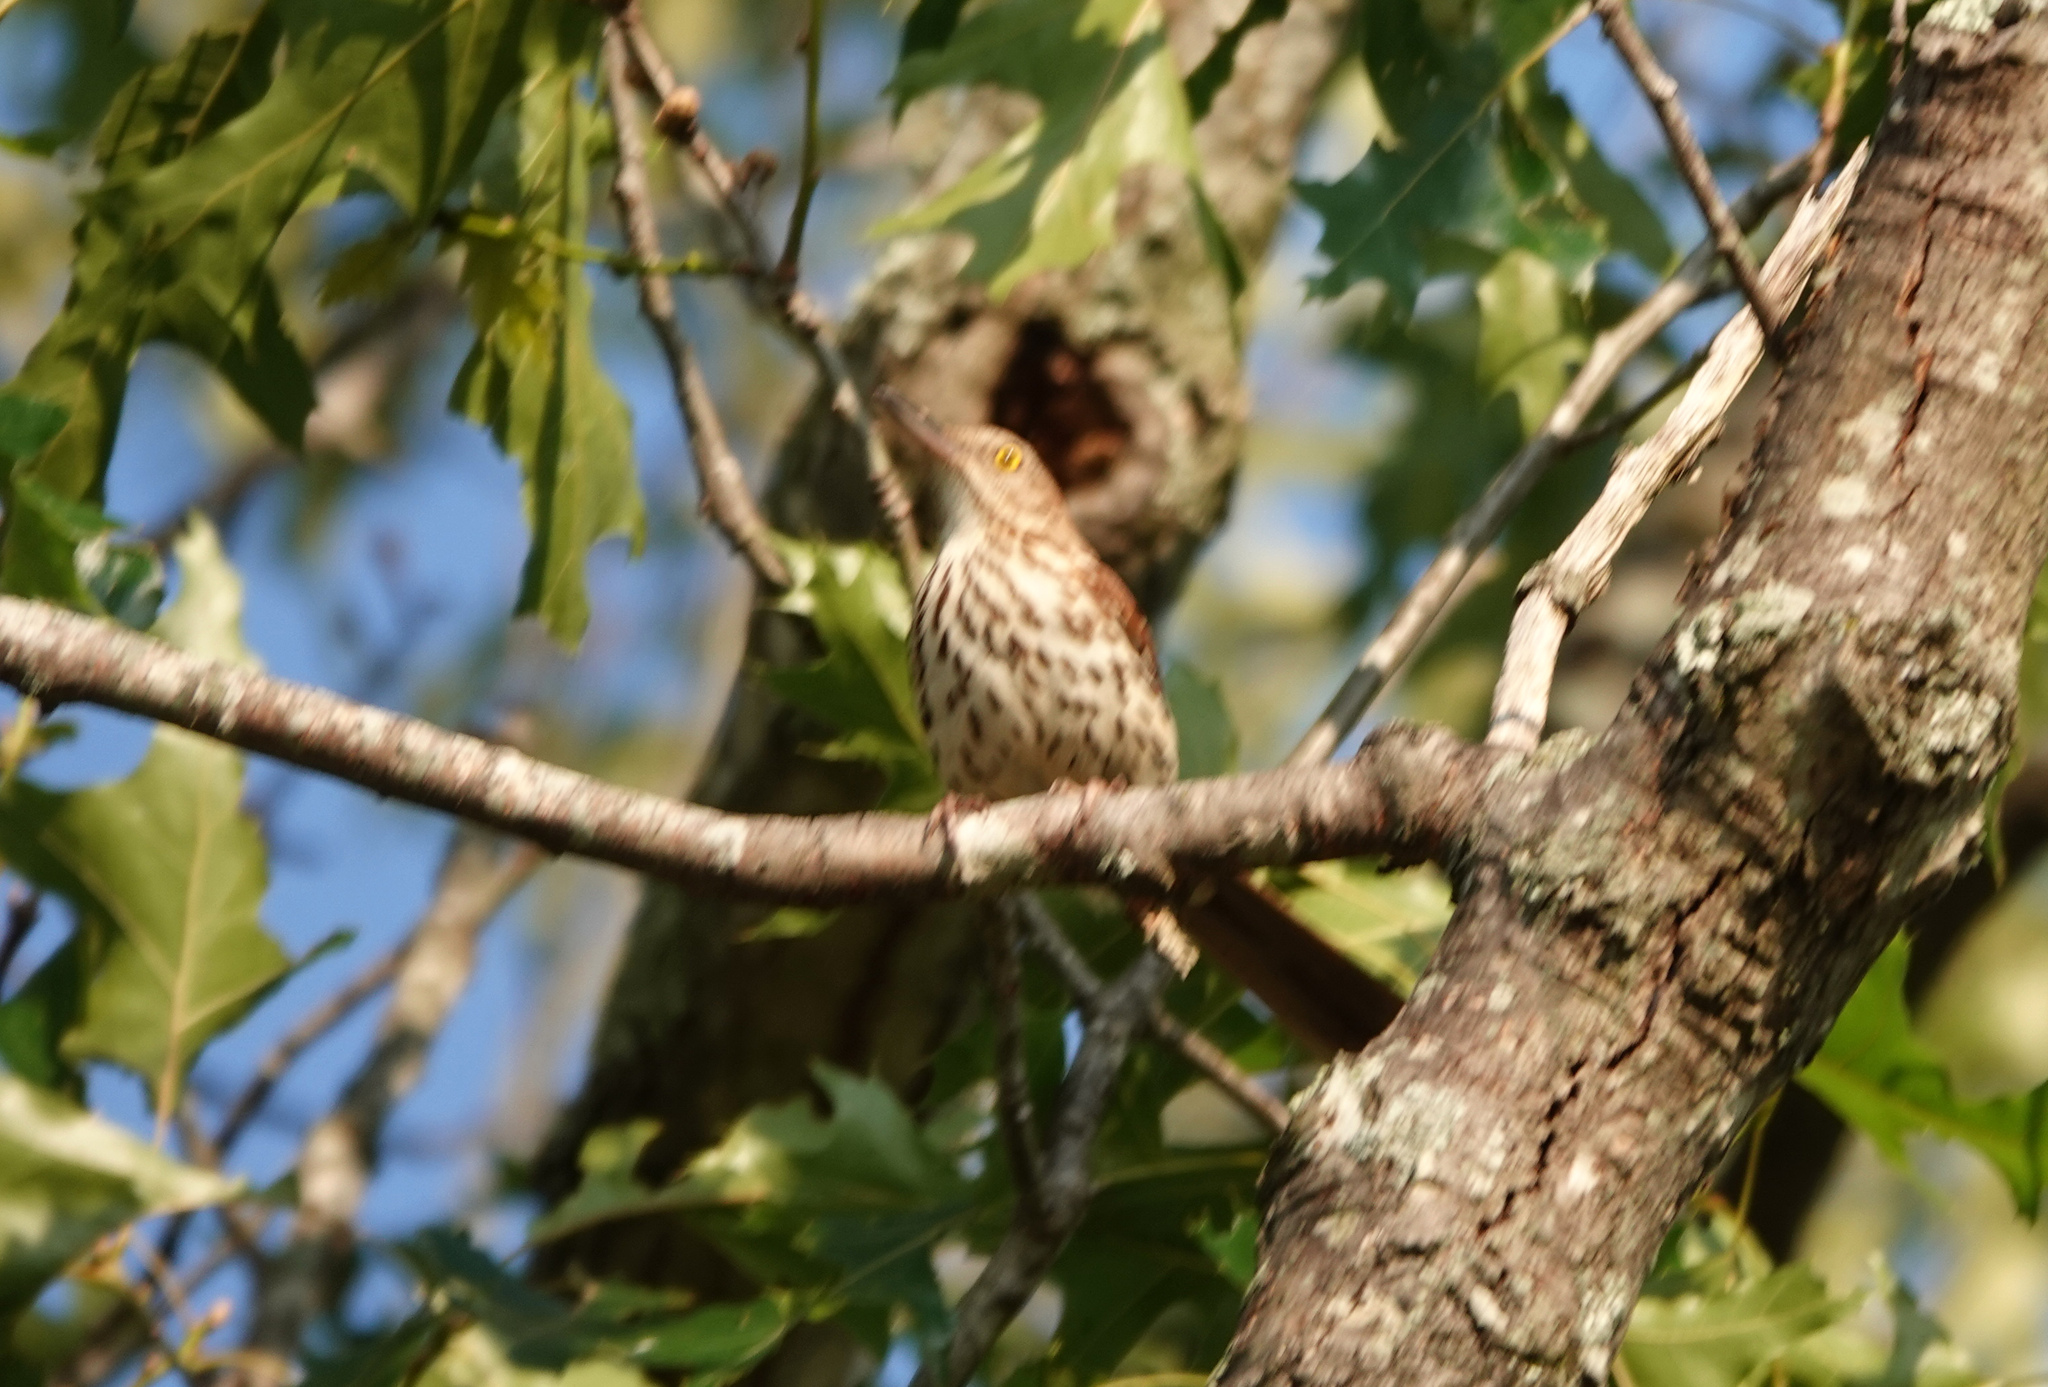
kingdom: Animalia
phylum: Chordata
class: Aves
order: Passeriformes
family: Mimidae
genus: Toxostoma
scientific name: Toxostoma rufum
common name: Brown thrasher
